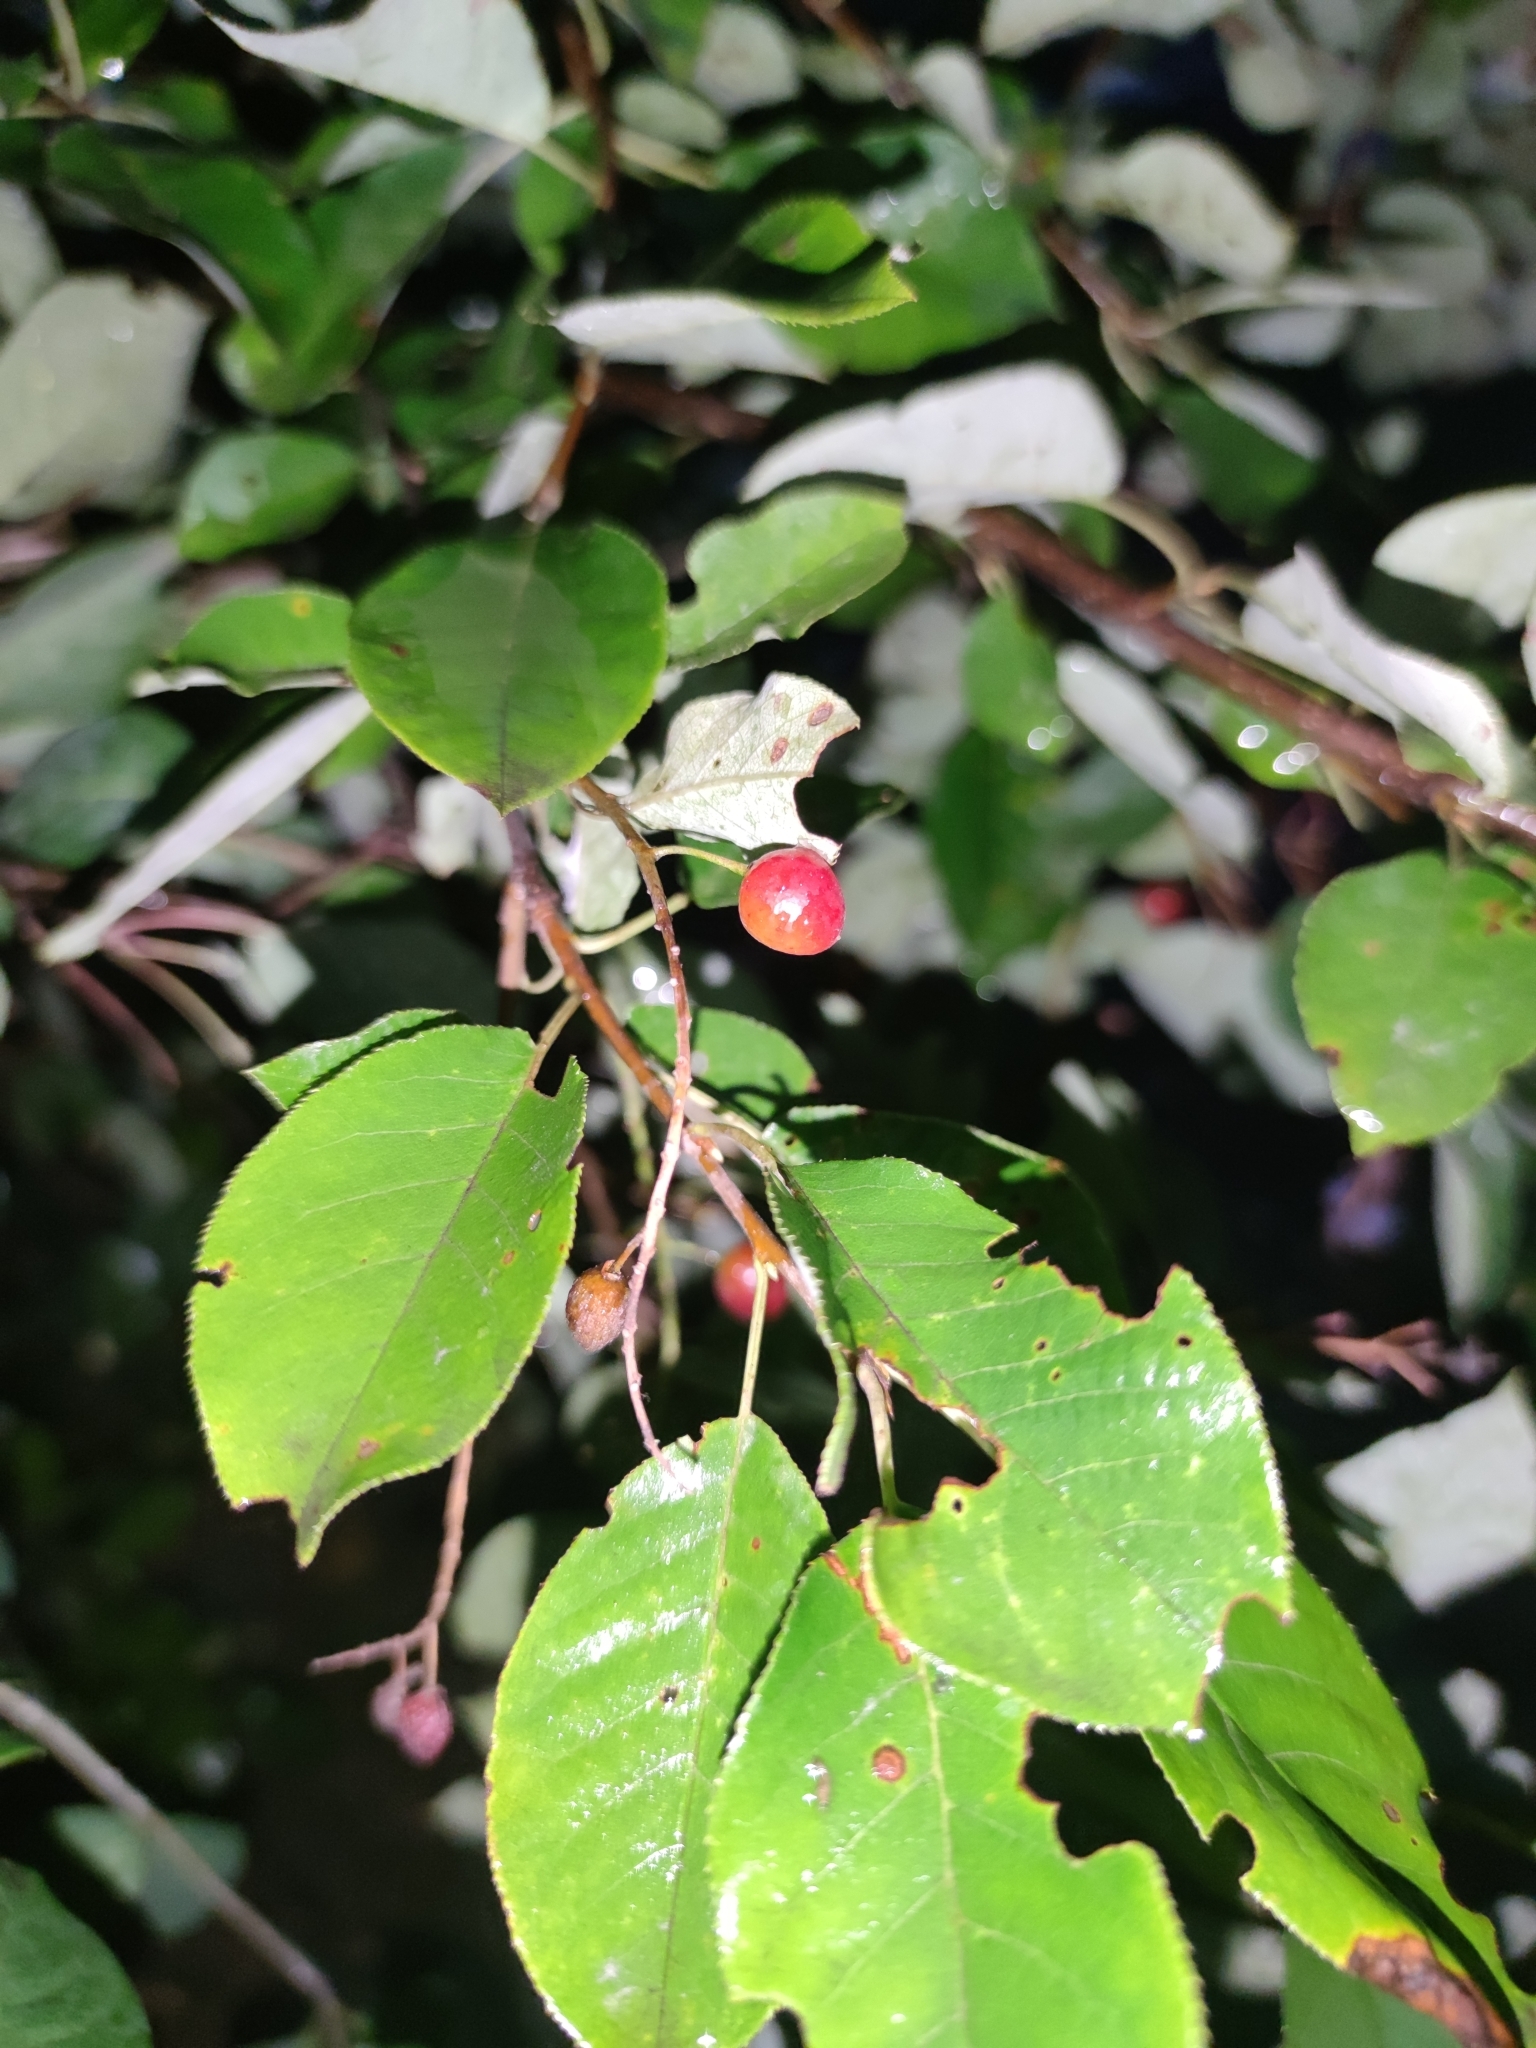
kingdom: Plantae
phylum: Tracheophyta
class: Magnoliopsida
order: Rosales
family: Rosaceae
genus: Prunus
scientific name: Prunus virginiana
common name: Chokecherry
